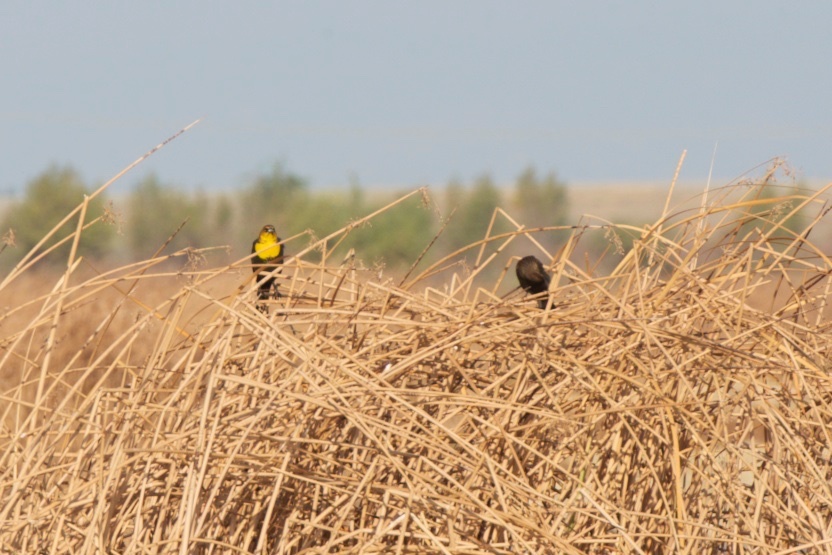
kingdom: Animalia
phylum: Chordata
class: Aves
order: Passeriformes
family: Icteridae
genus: Xanthocephalus
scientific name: Xanthocephalus xanthocephalus
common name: Yellow-headed blackbird
